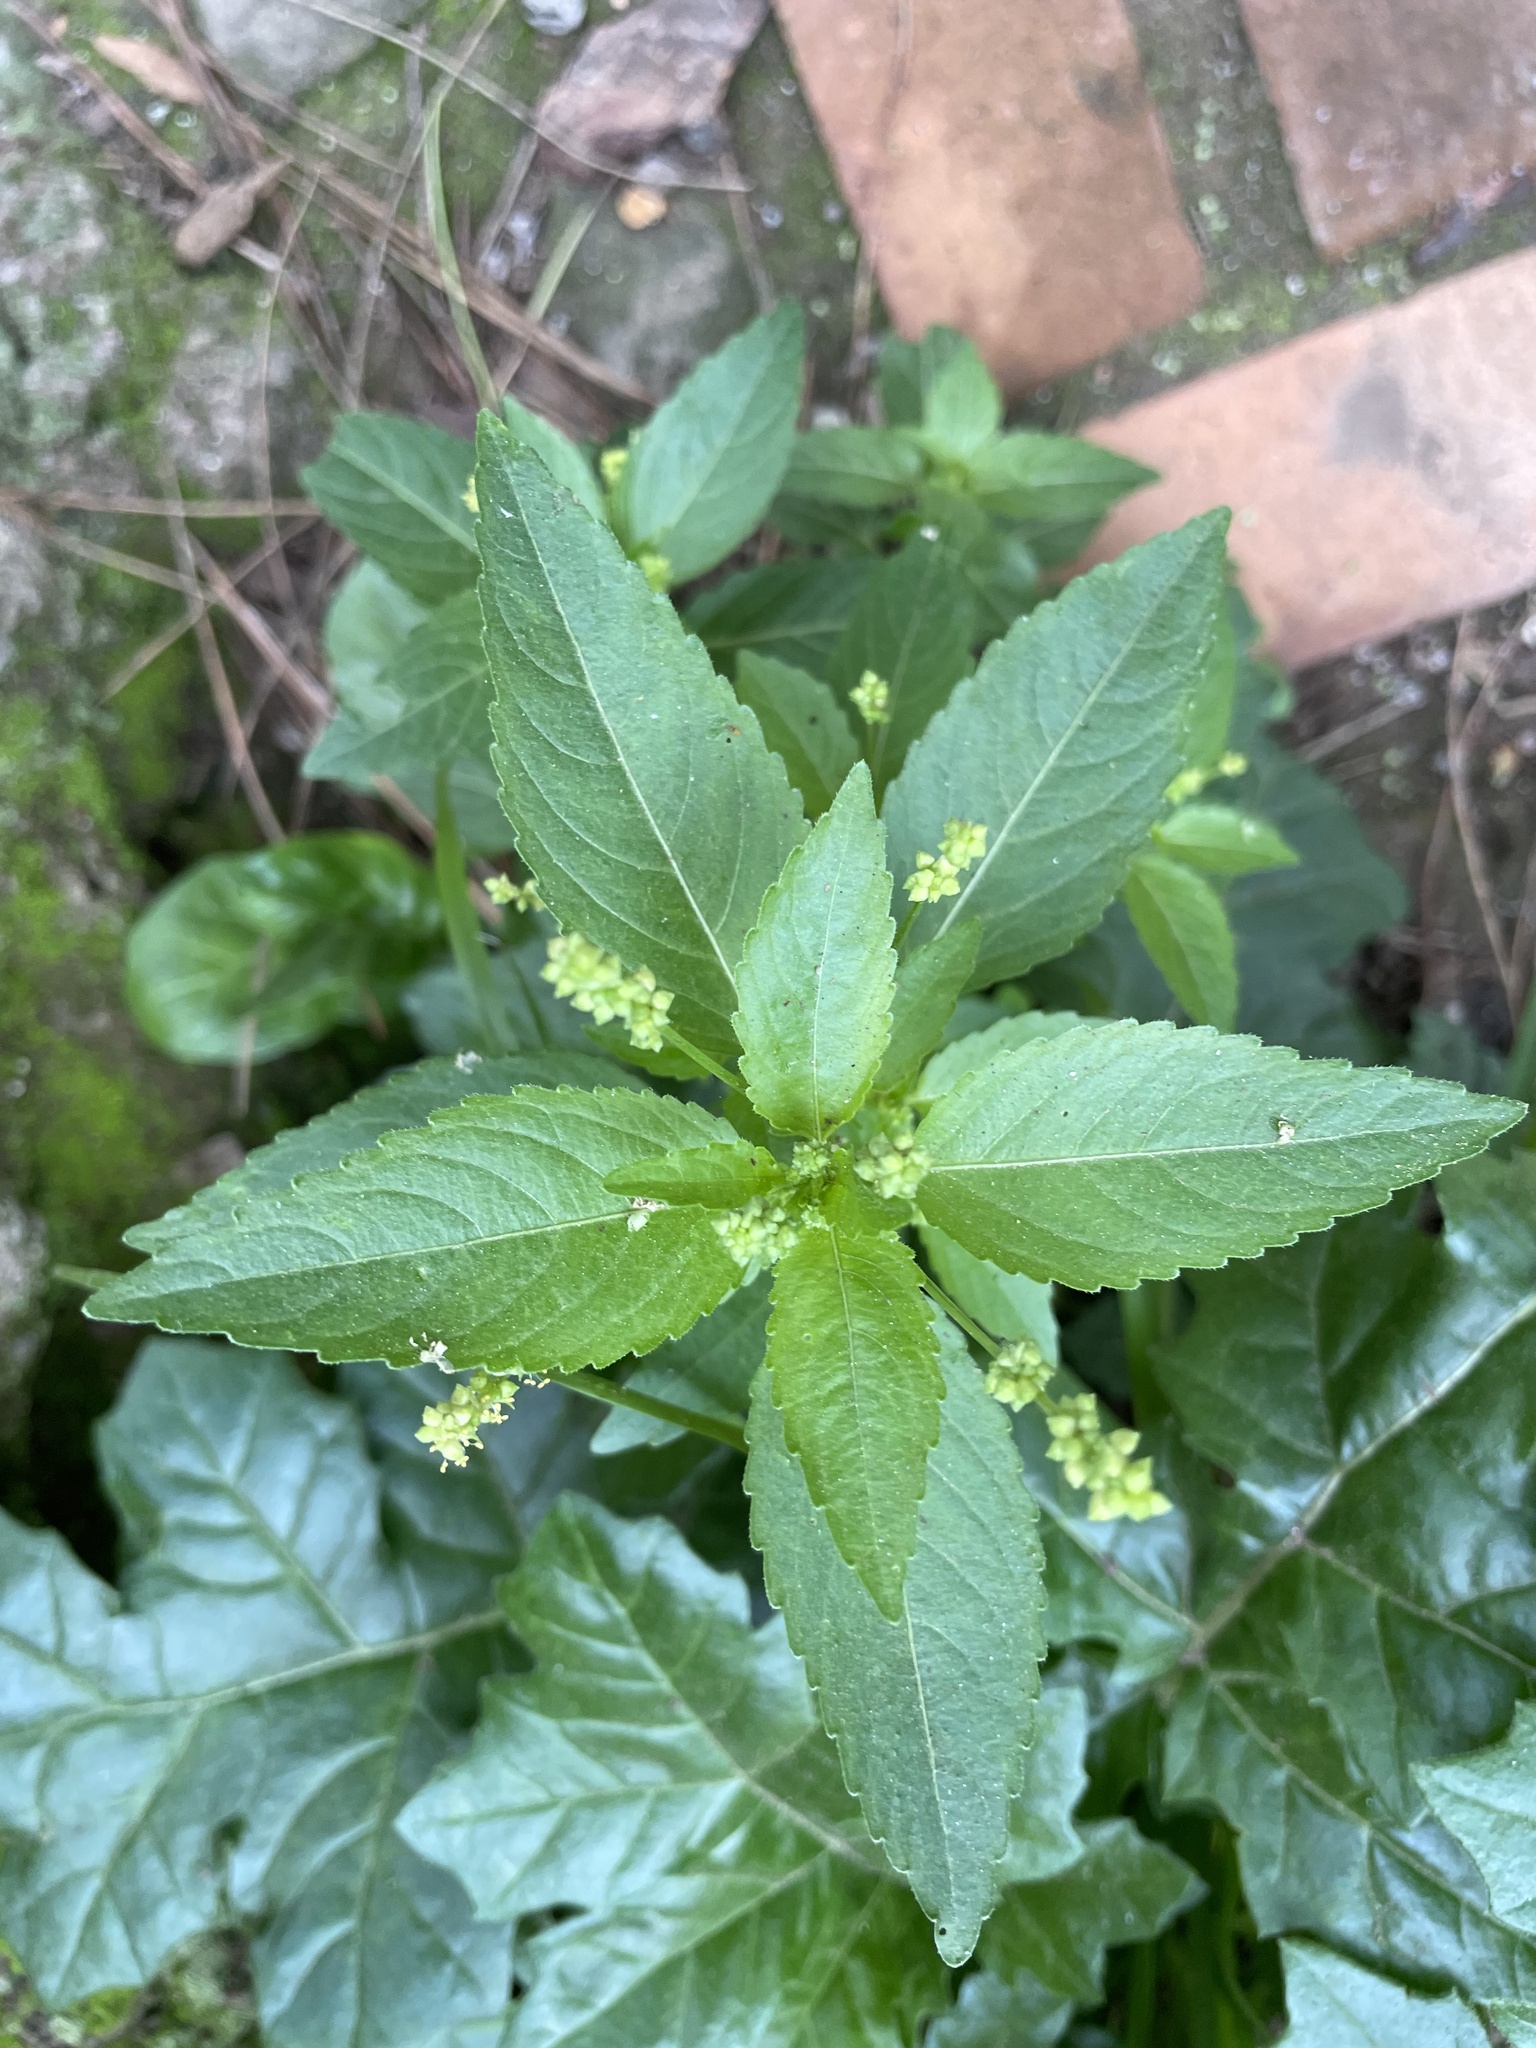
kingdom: Plantae
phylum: Tracheophyta
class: Magnoliopsida
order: Malpighiales
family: Euphorbiaceae
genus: Mercurialis
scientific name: Mercurialis annua
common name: Annual mercury
